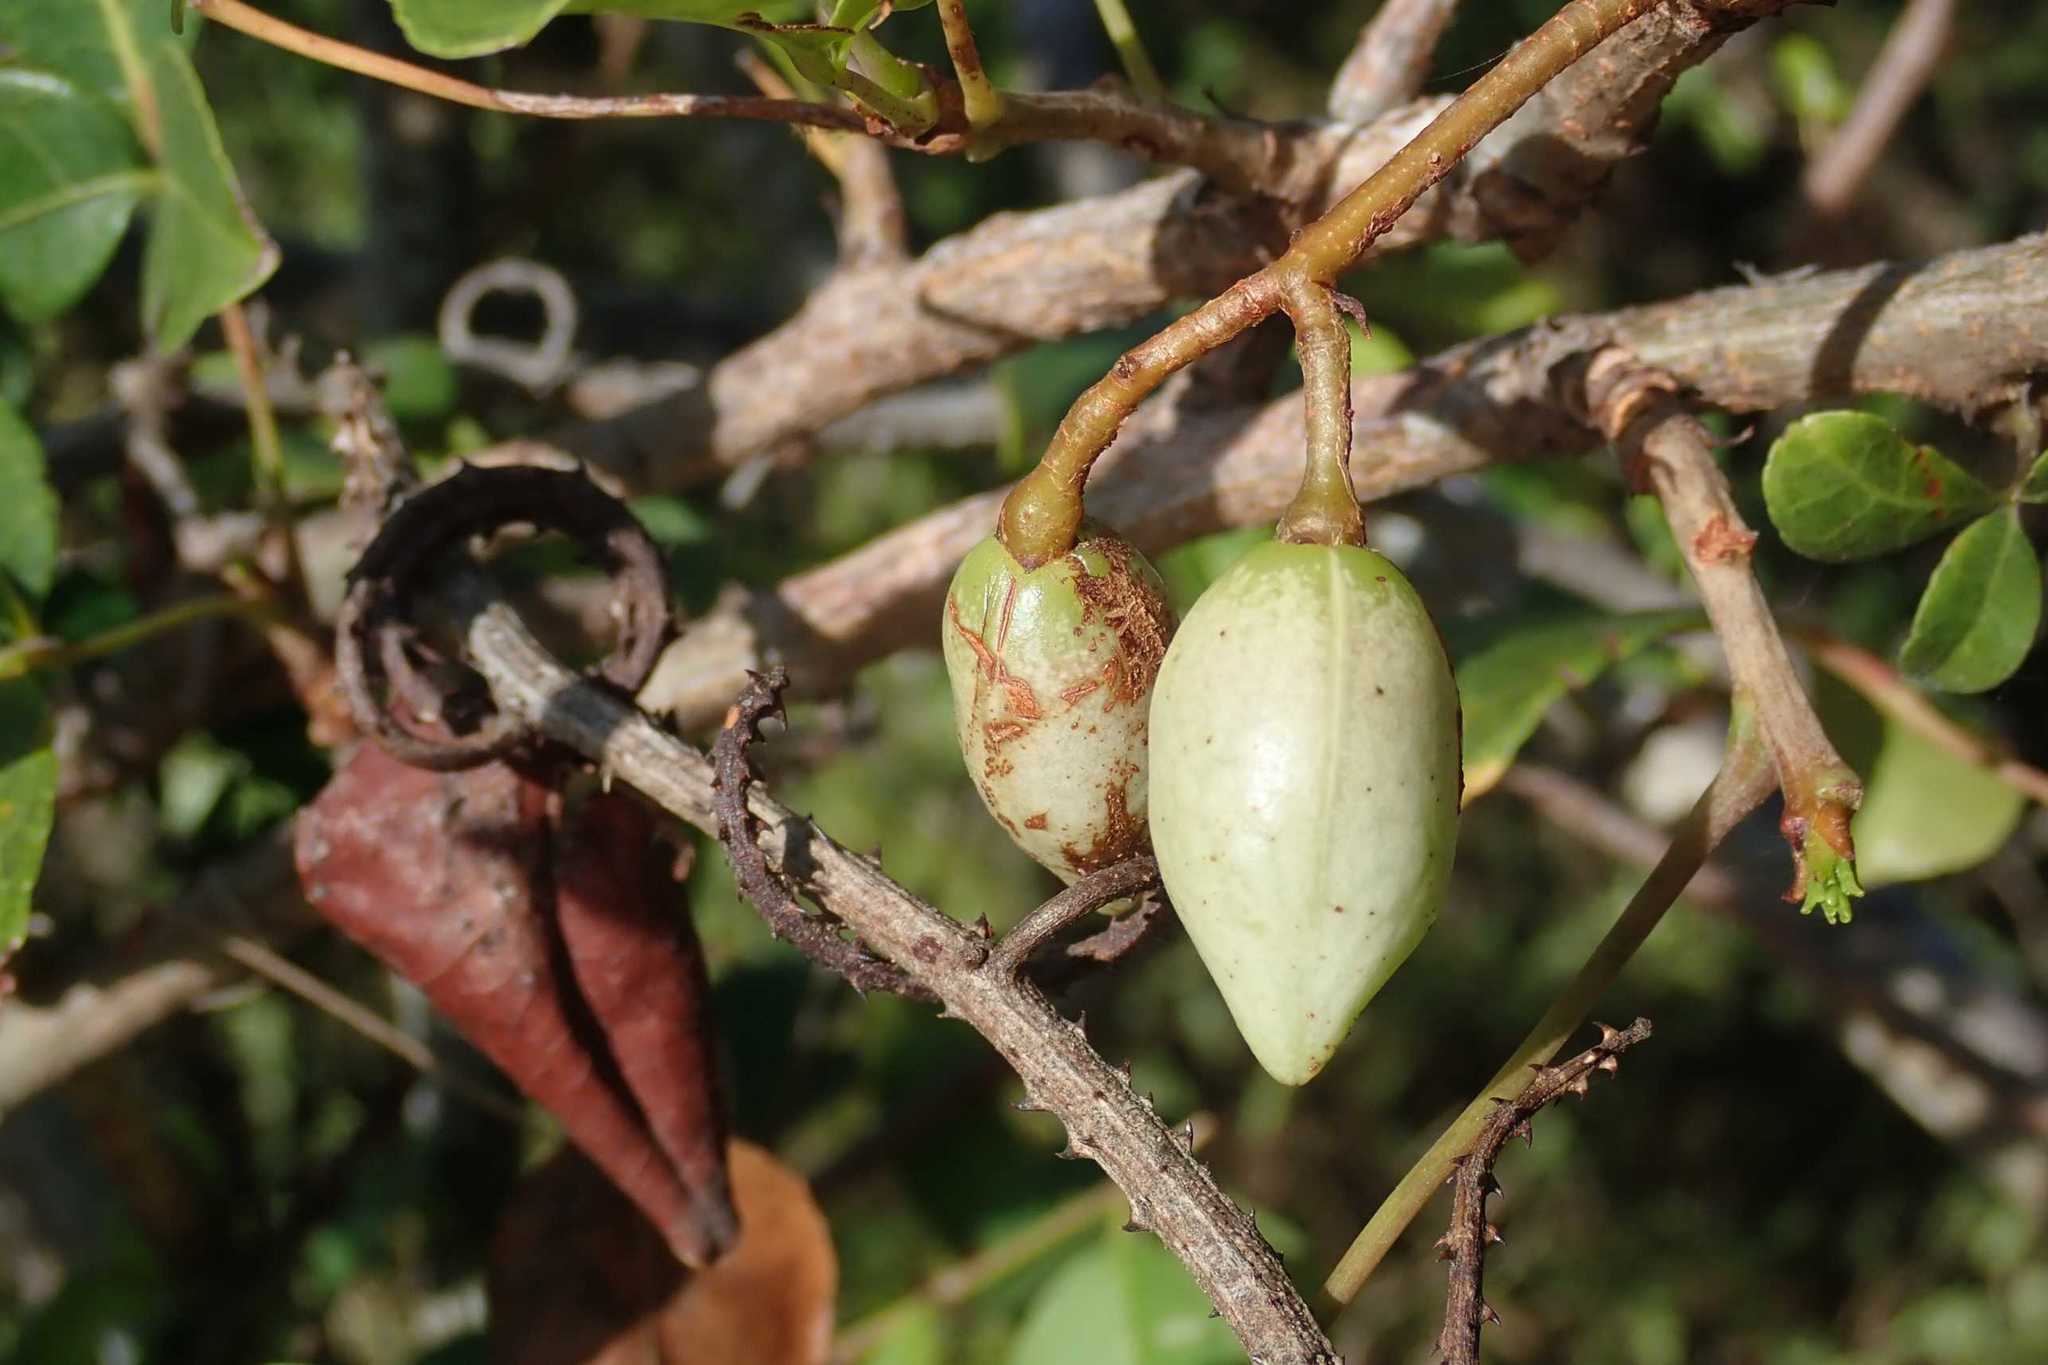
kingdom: Plantae
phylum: Tracheophyta
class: Magnoliopsida
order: Sapindales
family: Burseraceae
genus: Commiphora
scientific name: Commiphora schlechteri
